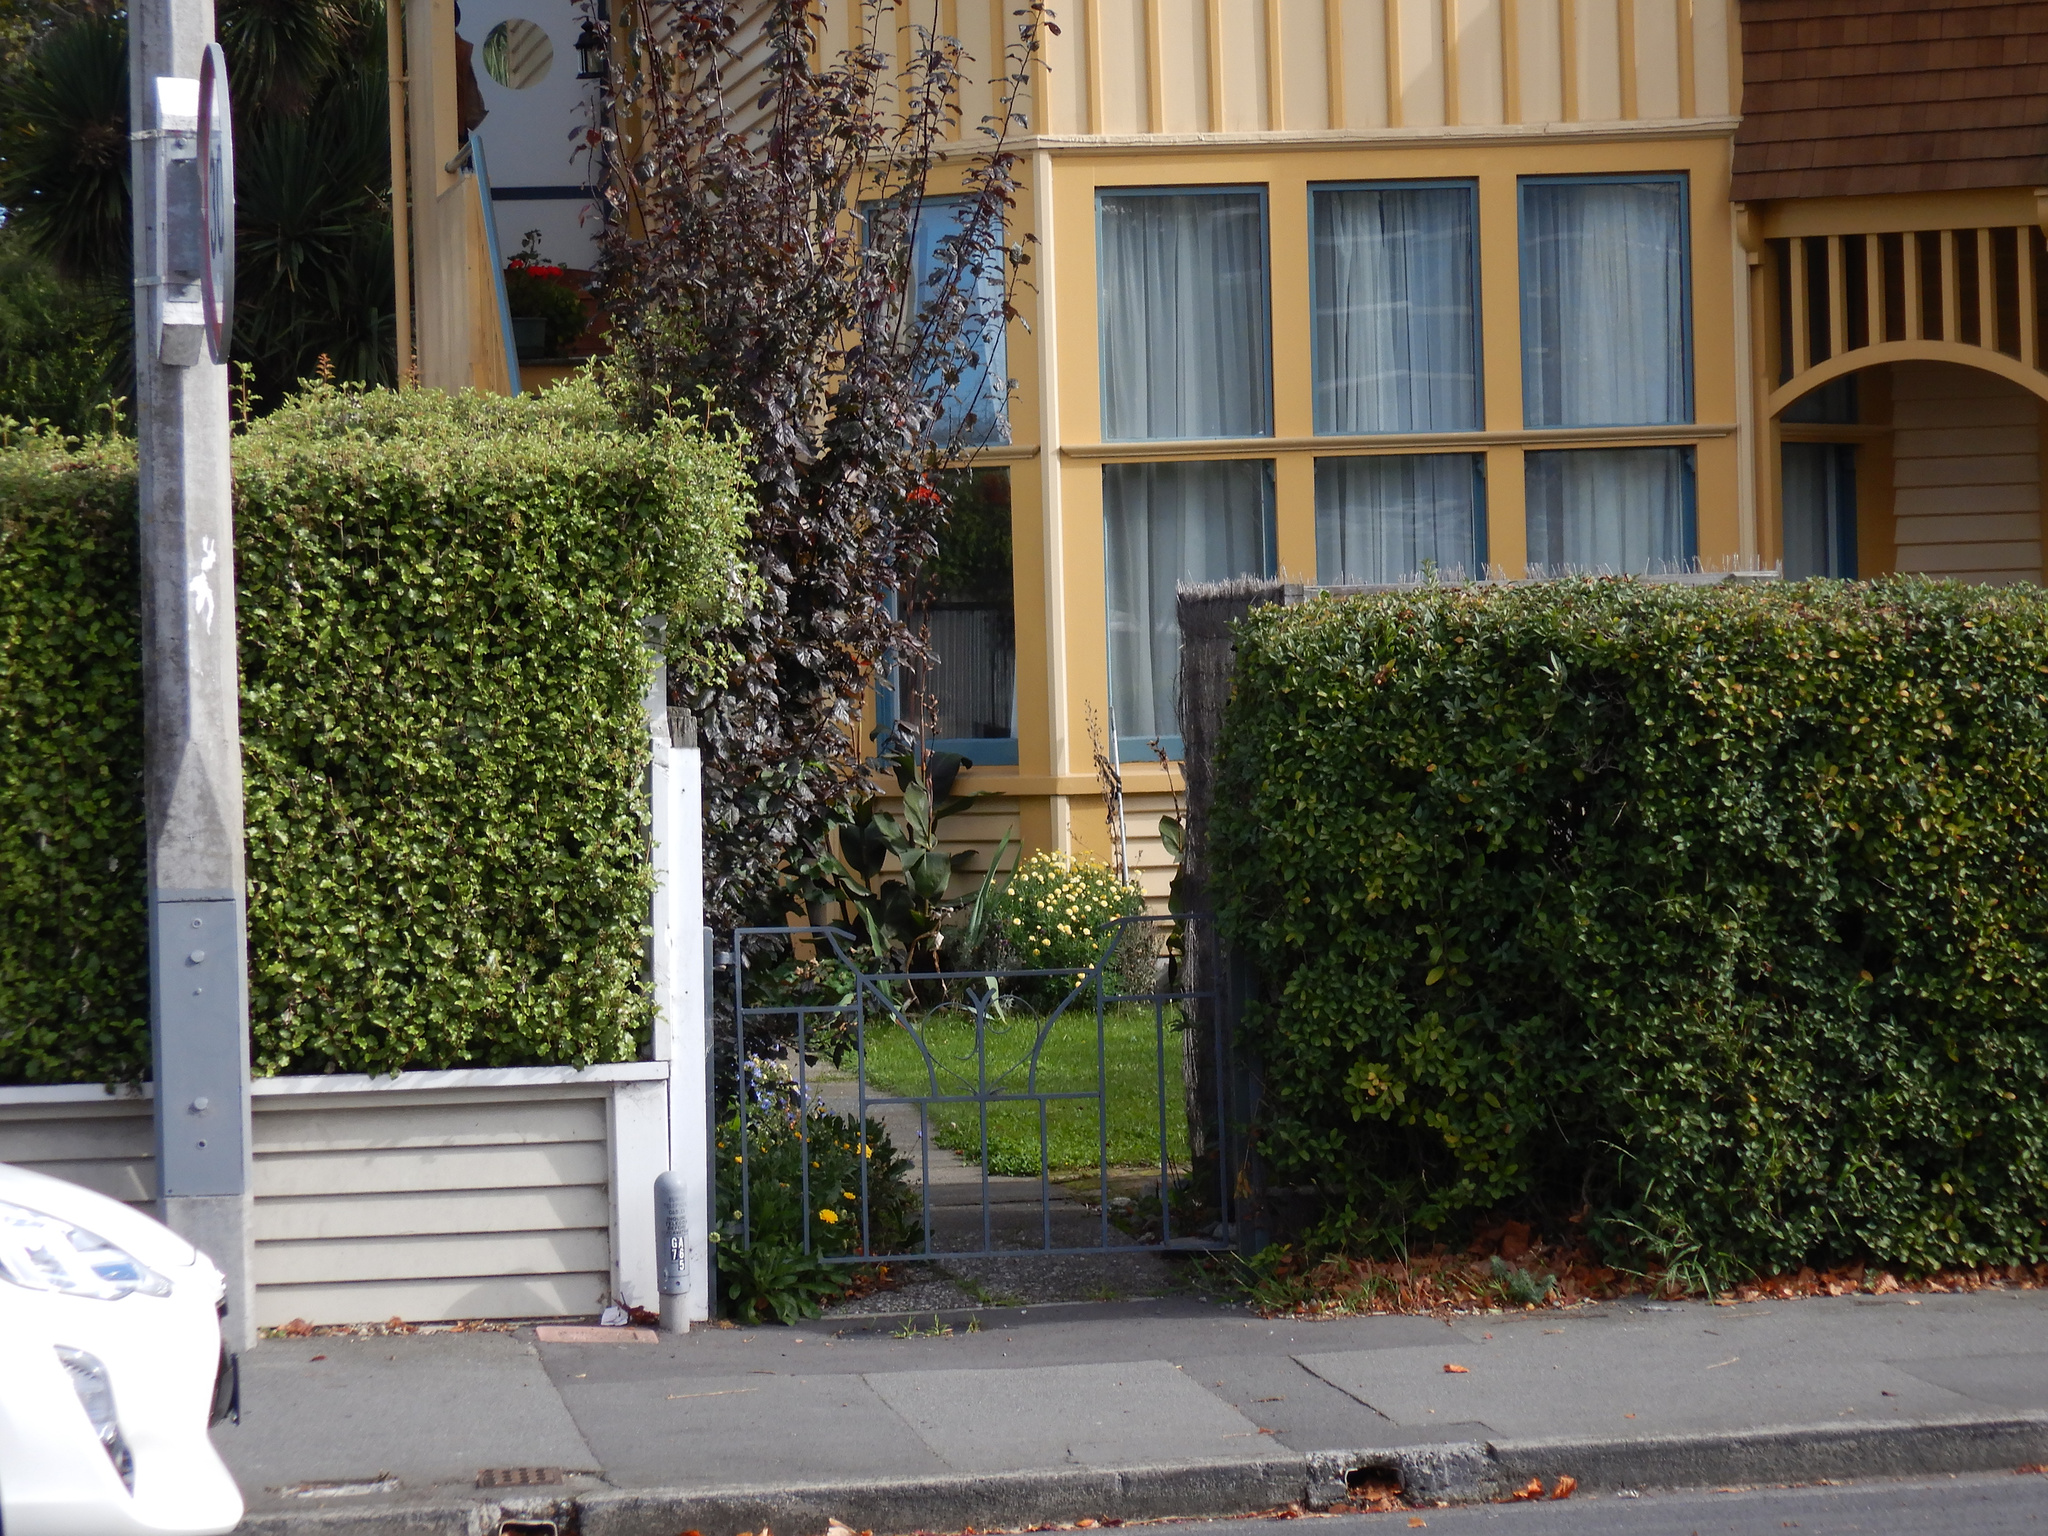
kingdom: Plantae
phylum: Tracheophyta
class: Magnoliopsida
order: Asterales
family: Asteraceae
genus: Calendula
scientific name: Calendula officinalis
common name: Pot marigold
